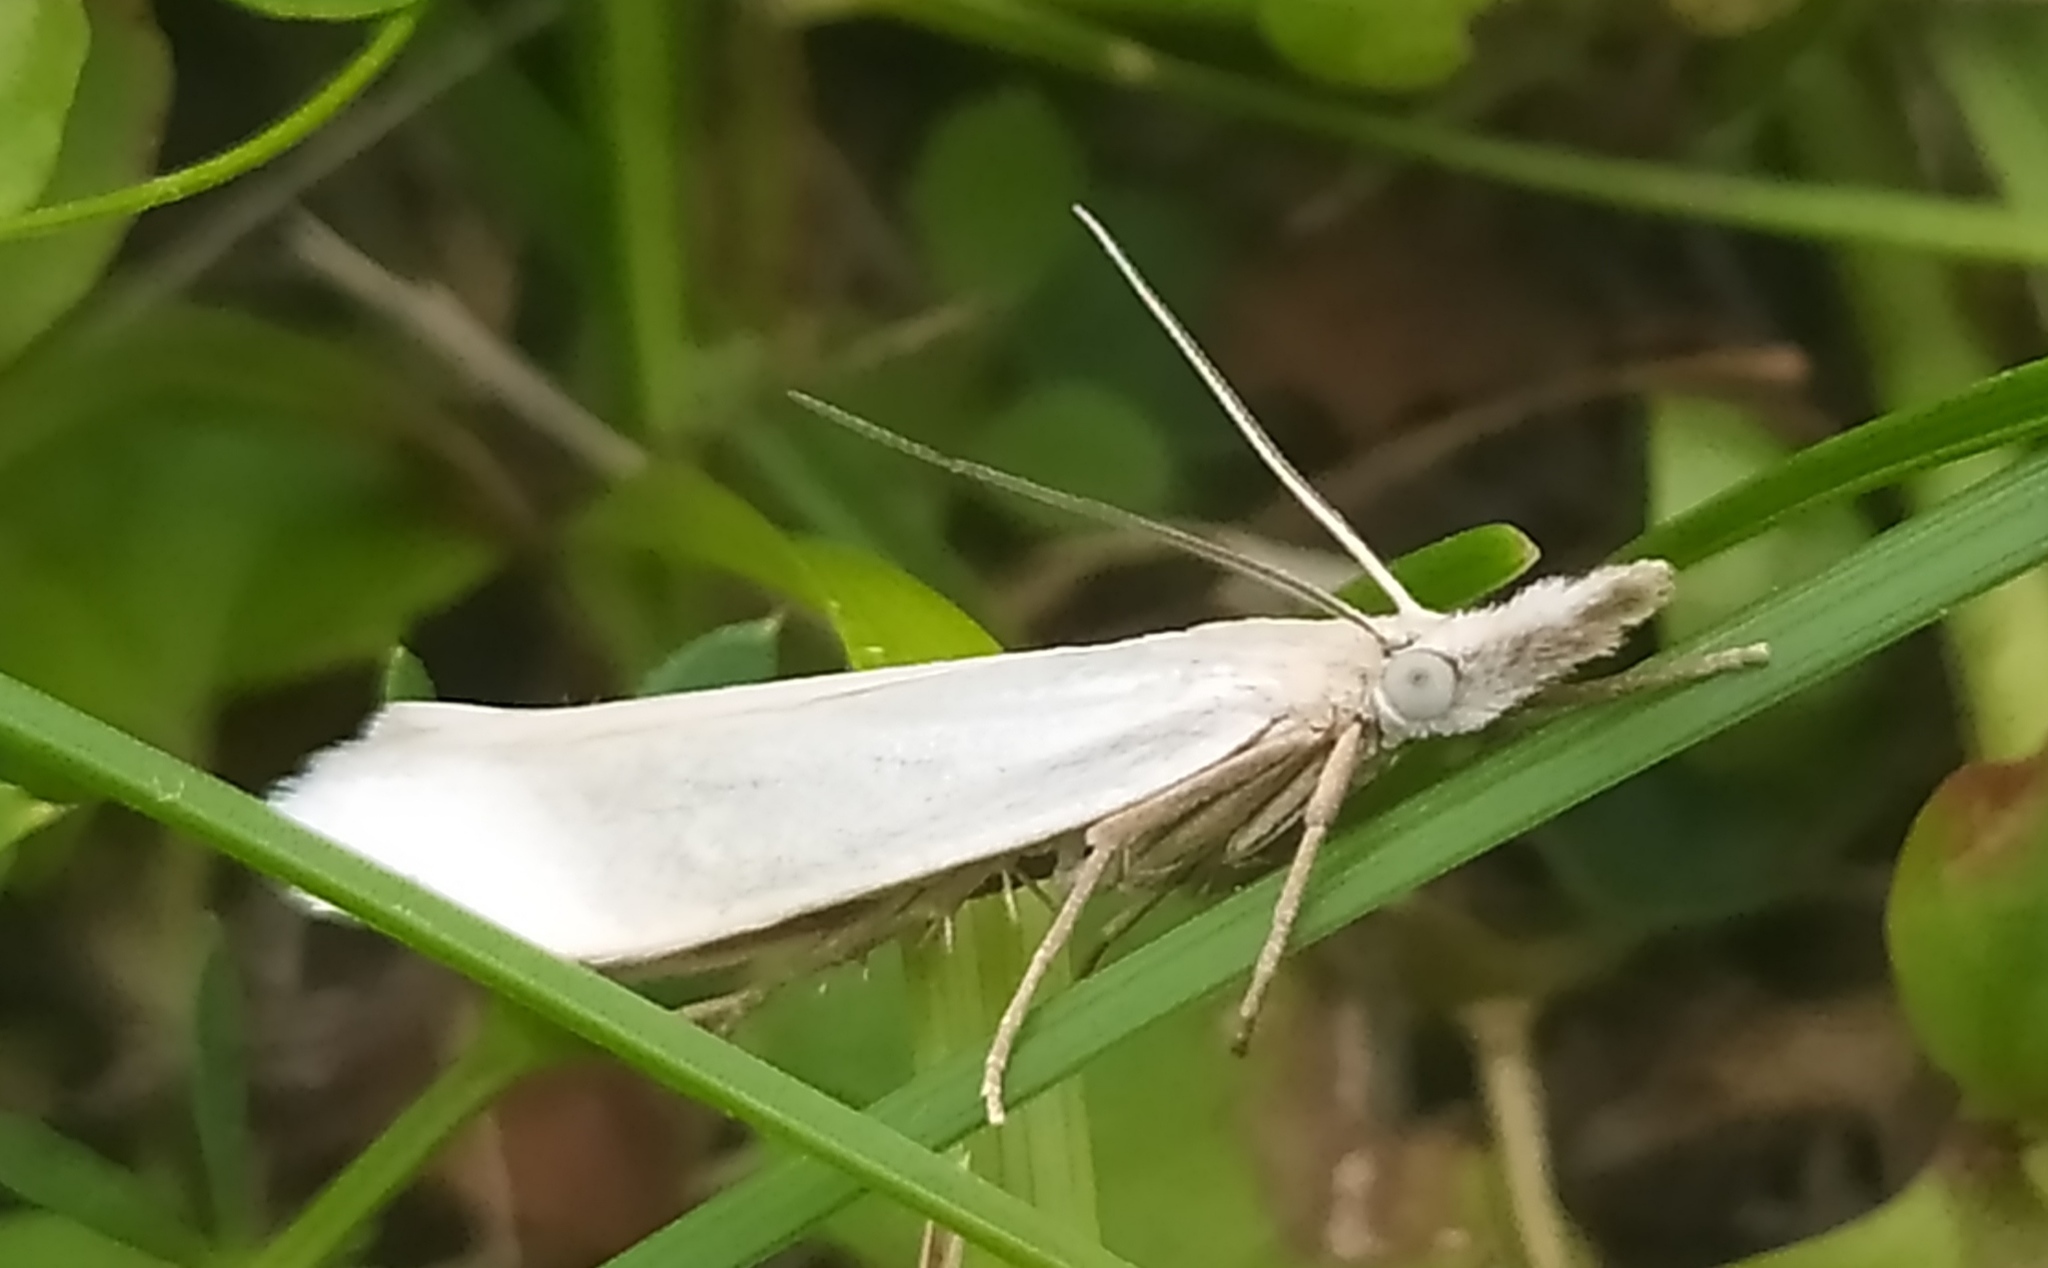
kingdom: Animalia
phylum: Arthropoda
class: Insecta
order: Lepidoptera
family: Crambidae
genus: Crambus
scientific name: Crambus perlellus
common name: Yellow satin veneer
